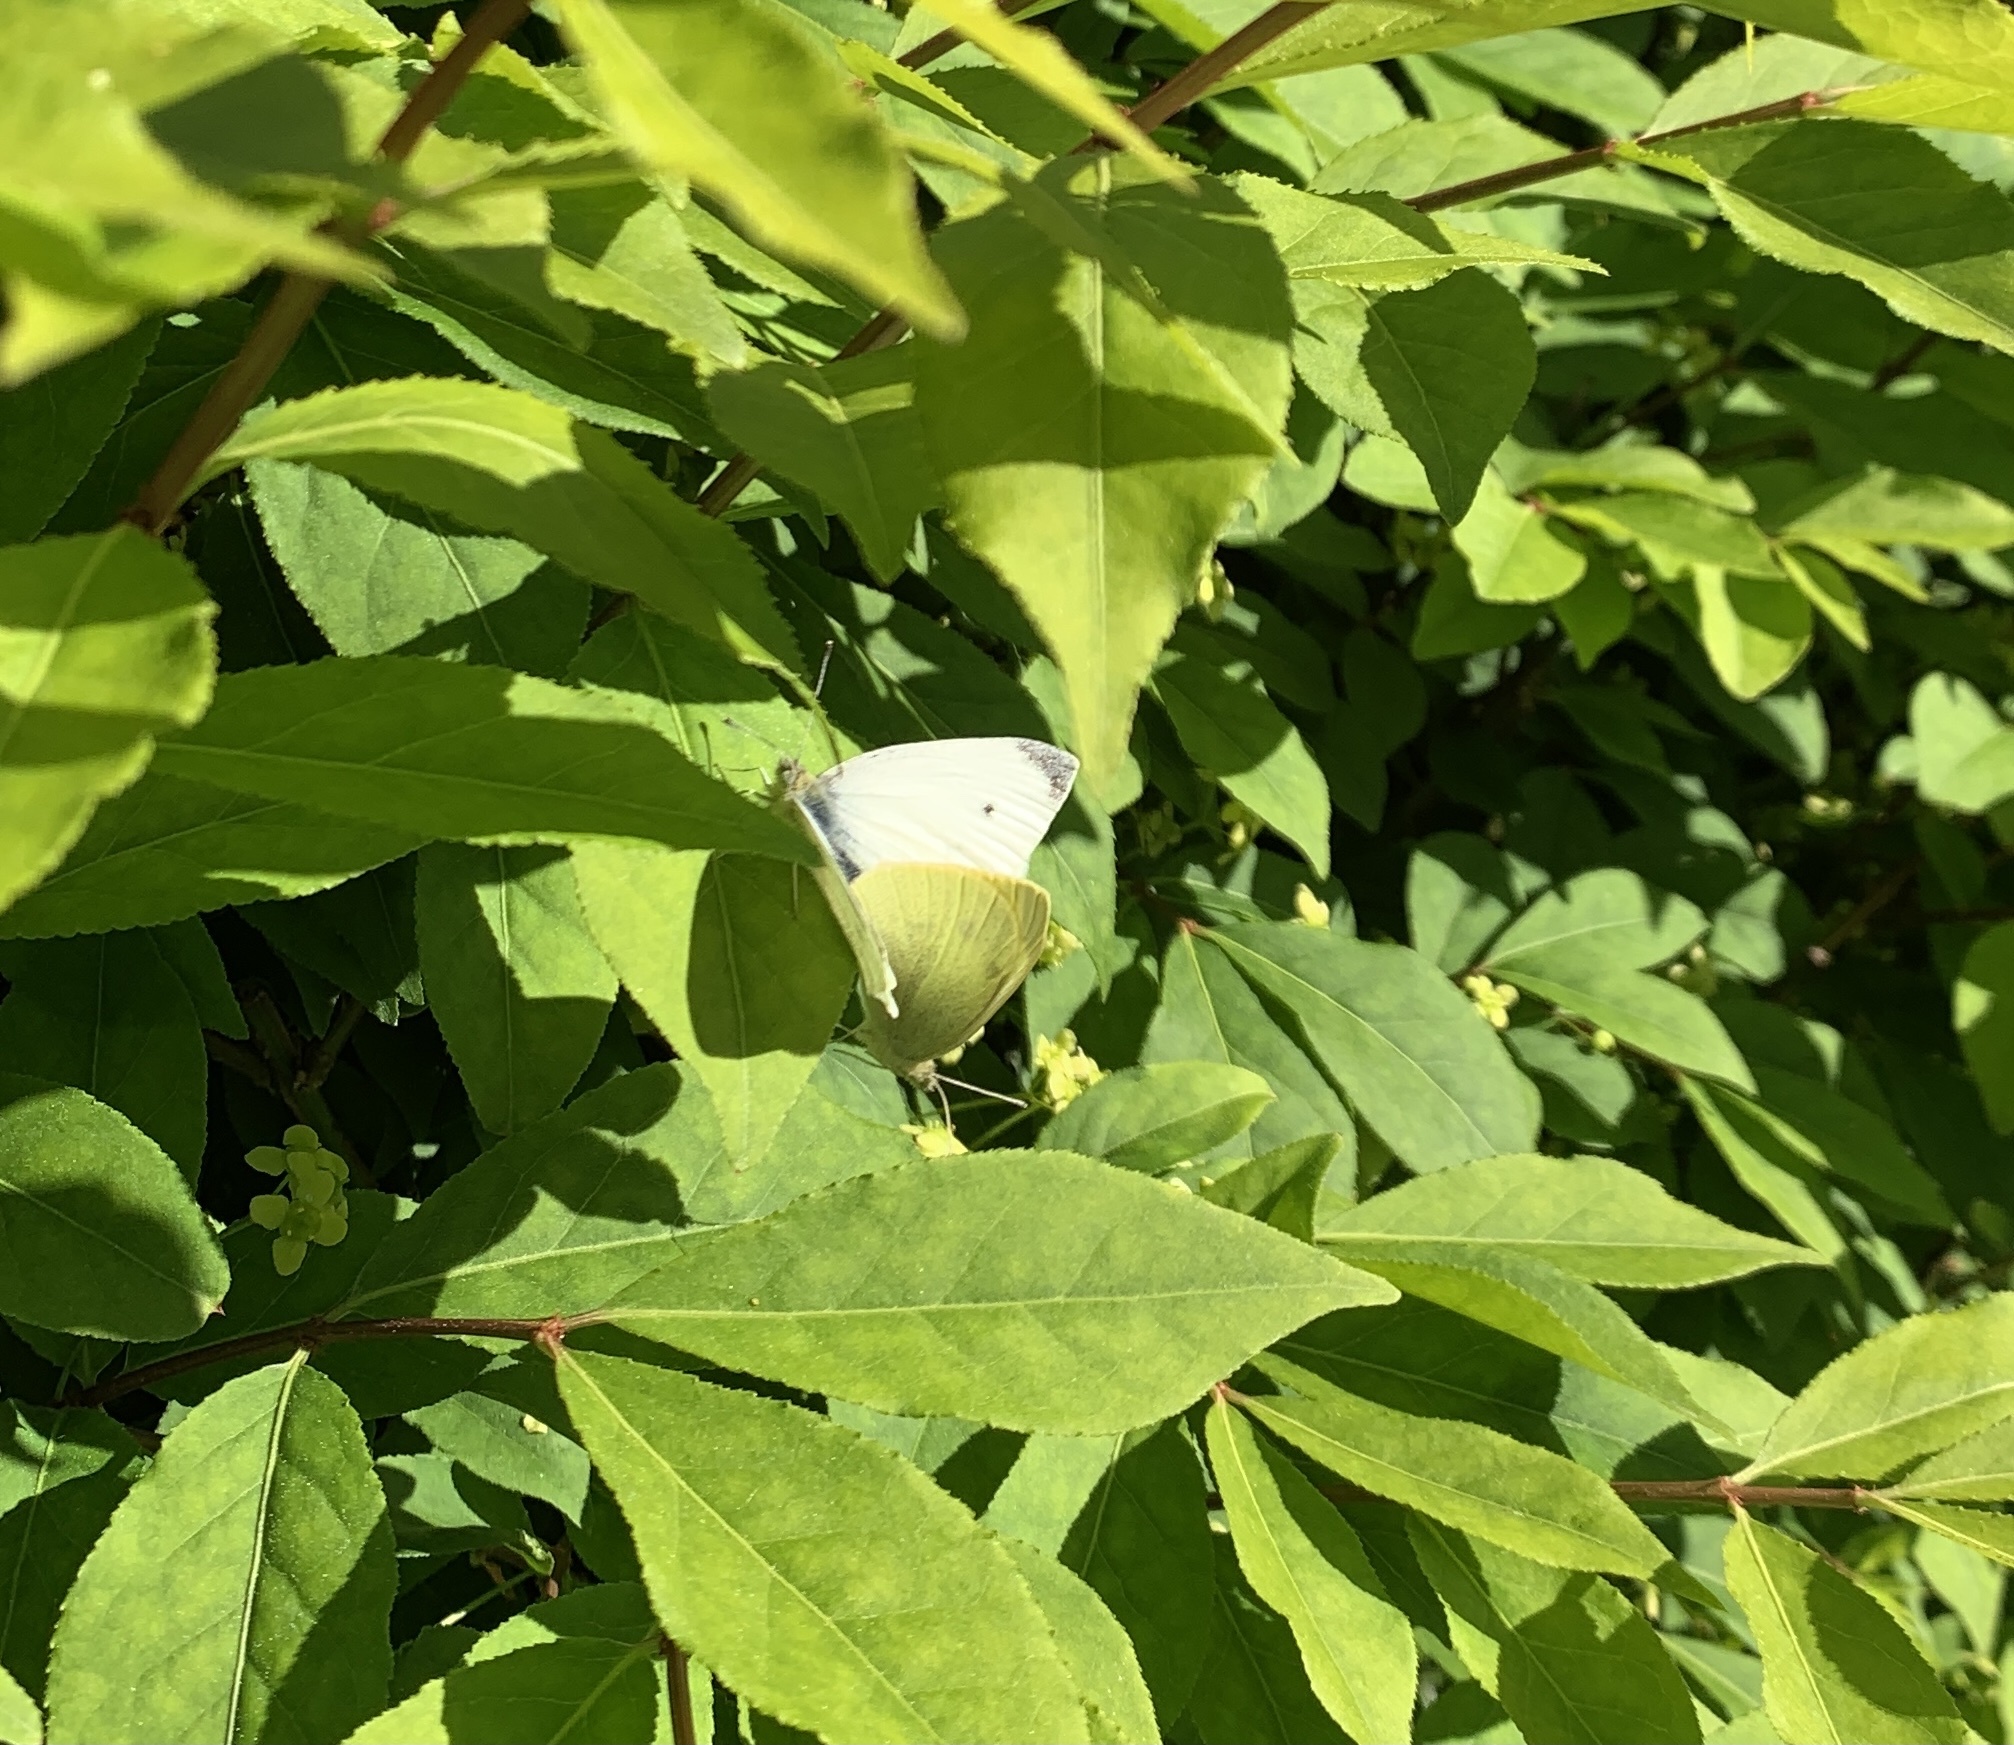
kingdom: Animalia
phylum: Arthropoda
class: Insecta
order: Lepidoptera
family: Pieridae
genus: Pieris
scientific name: Pieris rapae
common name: Small white
